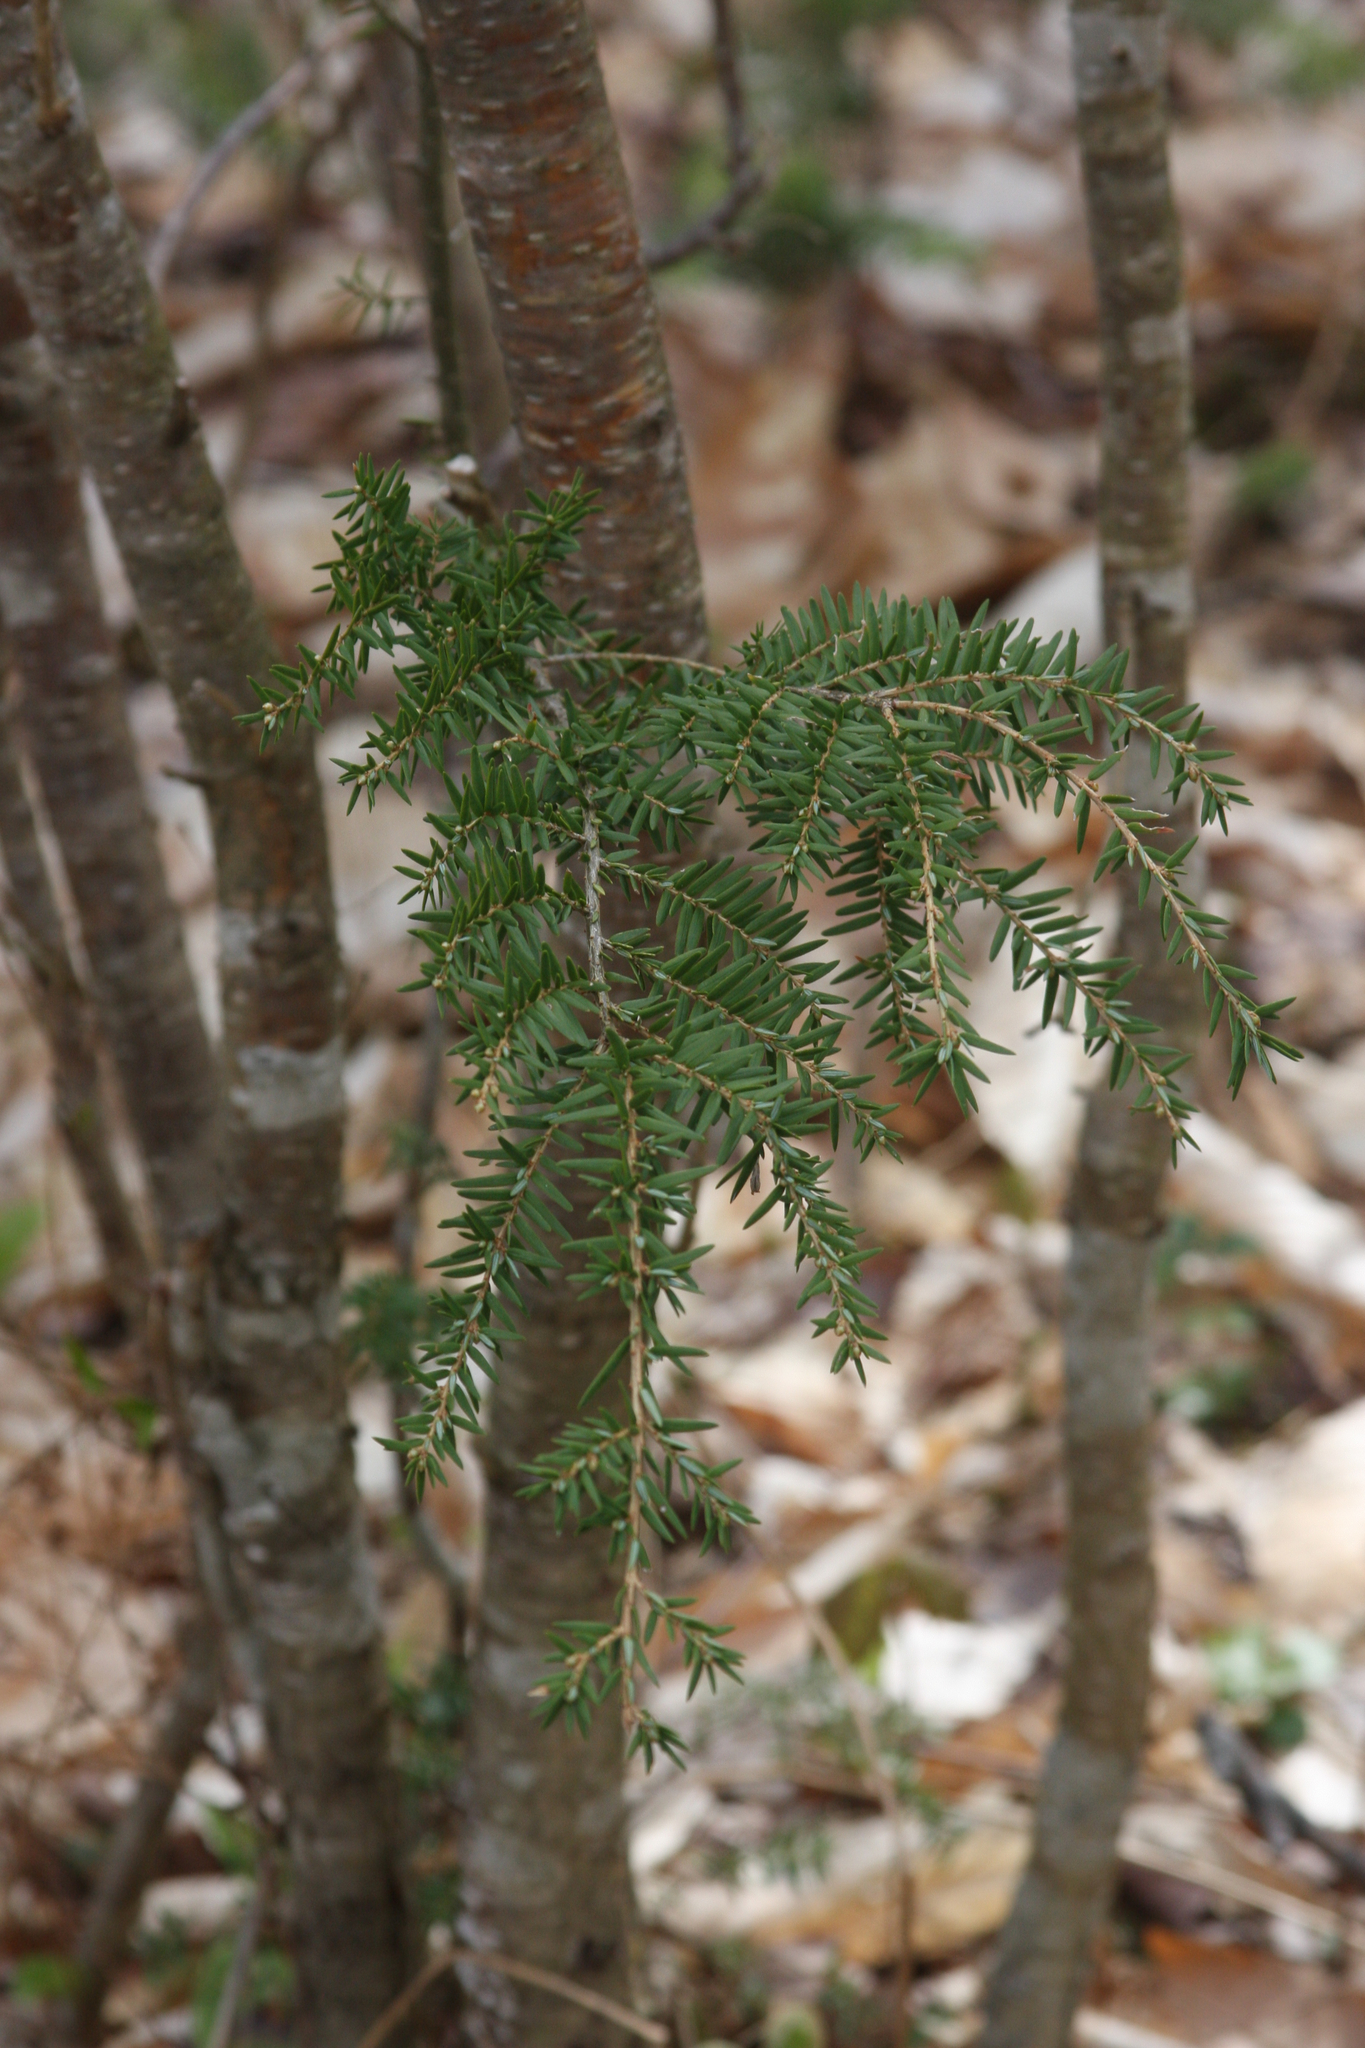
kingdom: Plantae
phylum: Tracheophyta
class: Pinopsida
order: Pinales
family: Pinaceae
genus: Tsuga
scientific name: Tsuga canadensis
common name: Eastern hemlock
